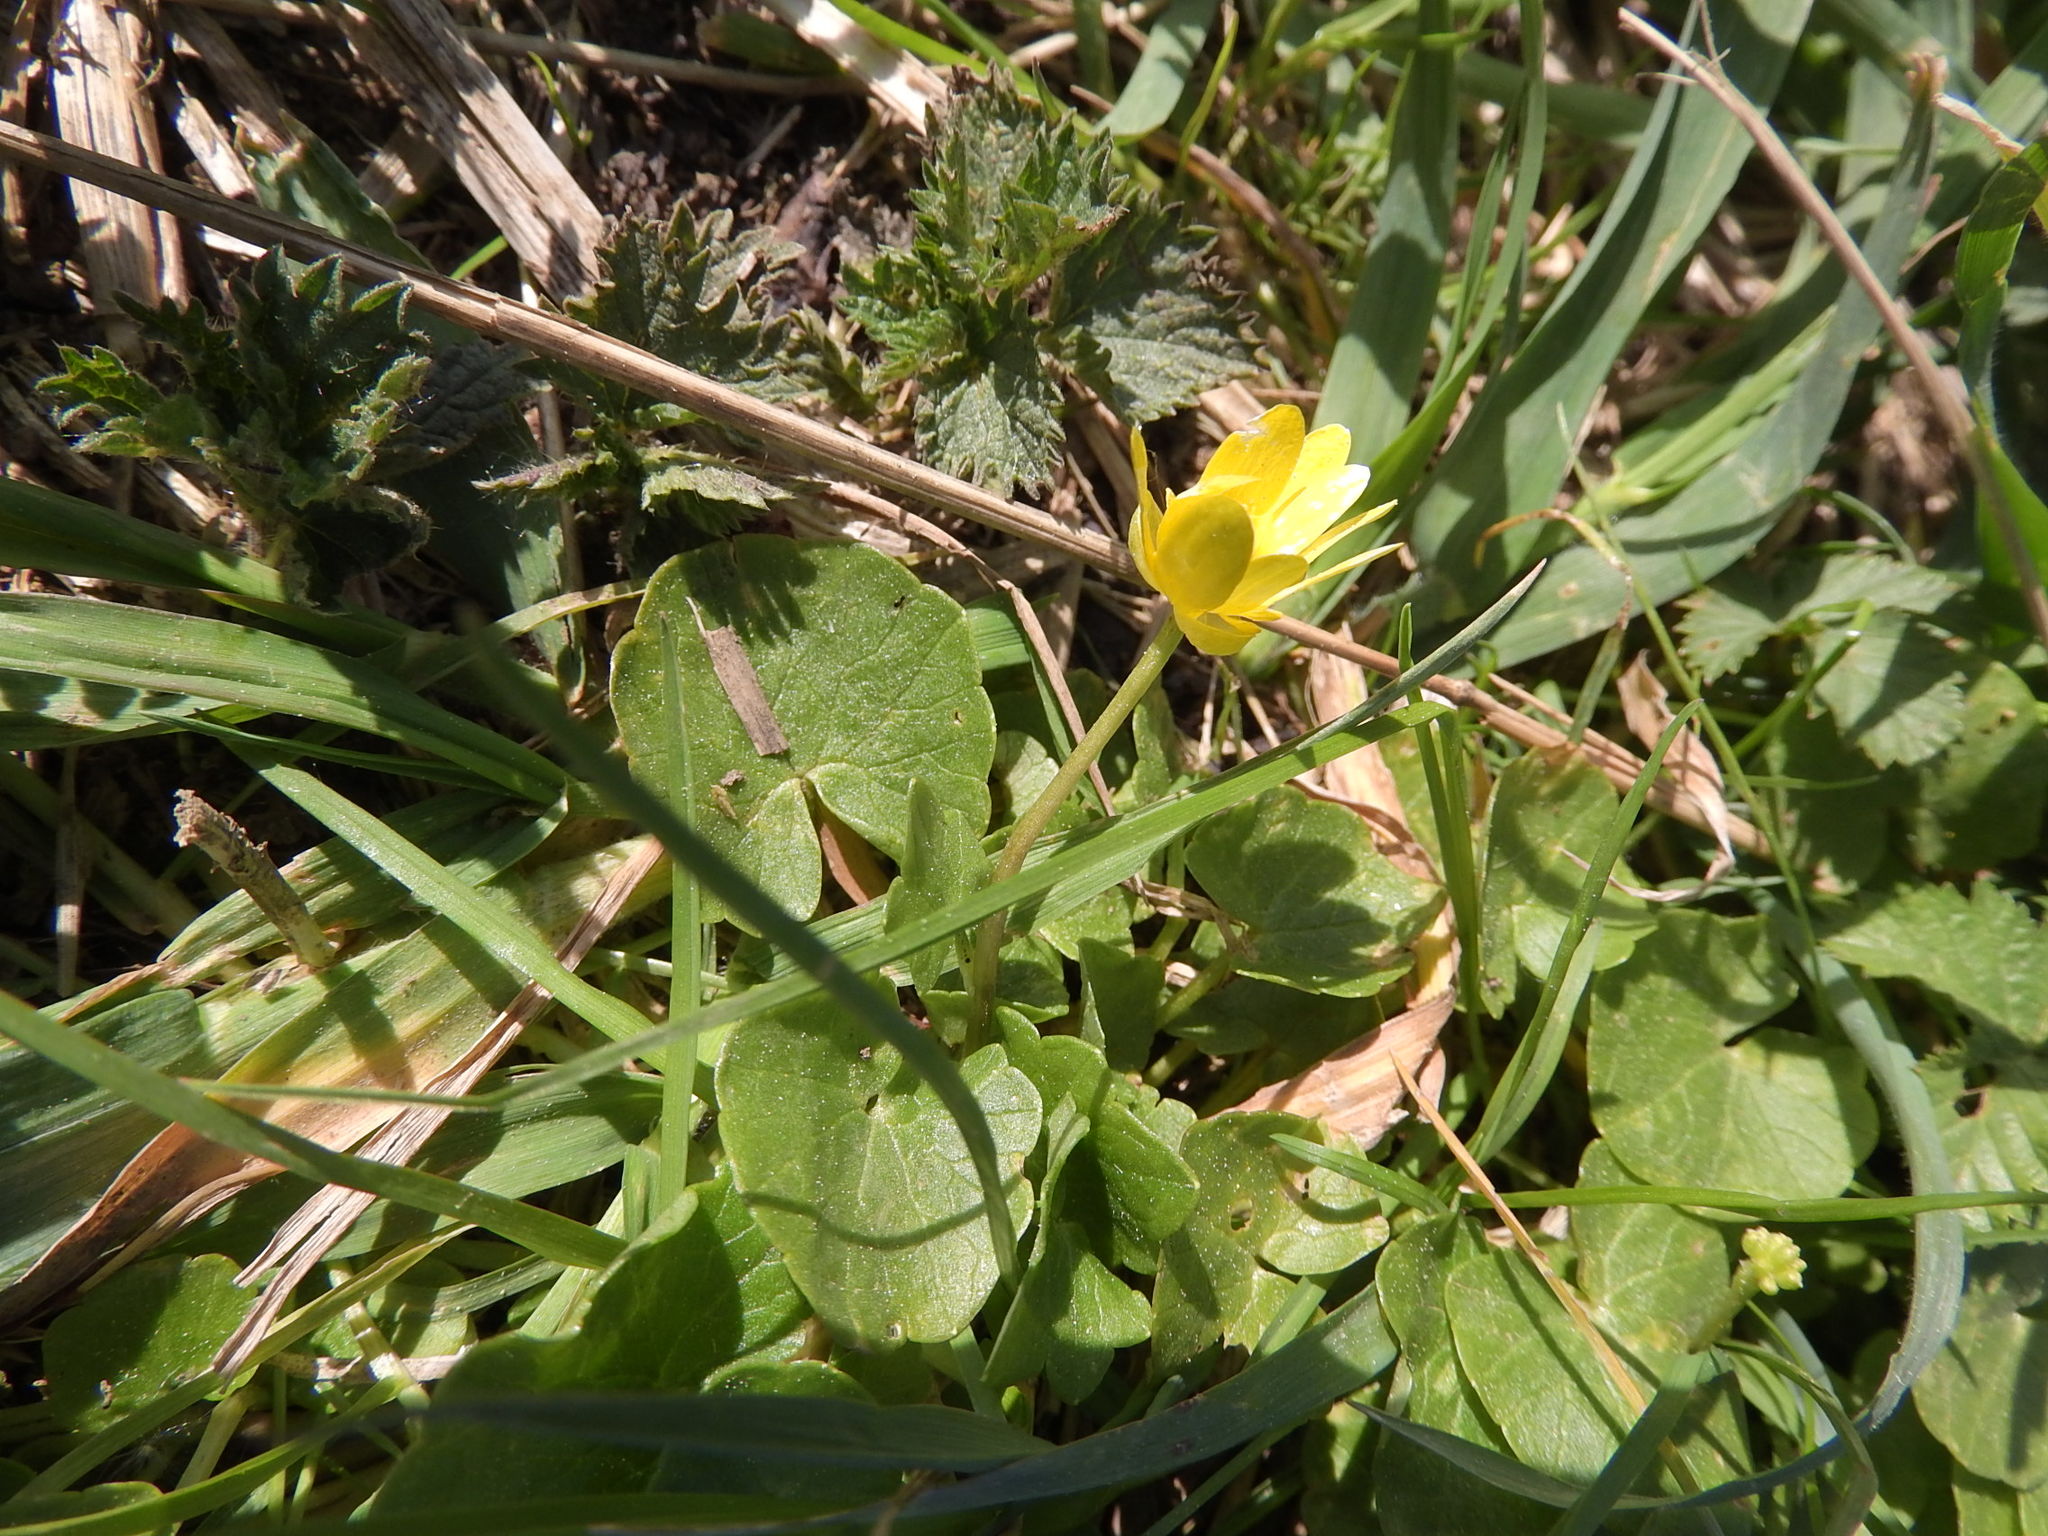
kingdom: Plantae
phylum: Tracheophyta
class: Magnoliopsida
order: Ranunculales
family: Ranunculaceae
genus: Ficaria
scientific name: Ficaria verna
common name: Lesser celandine
